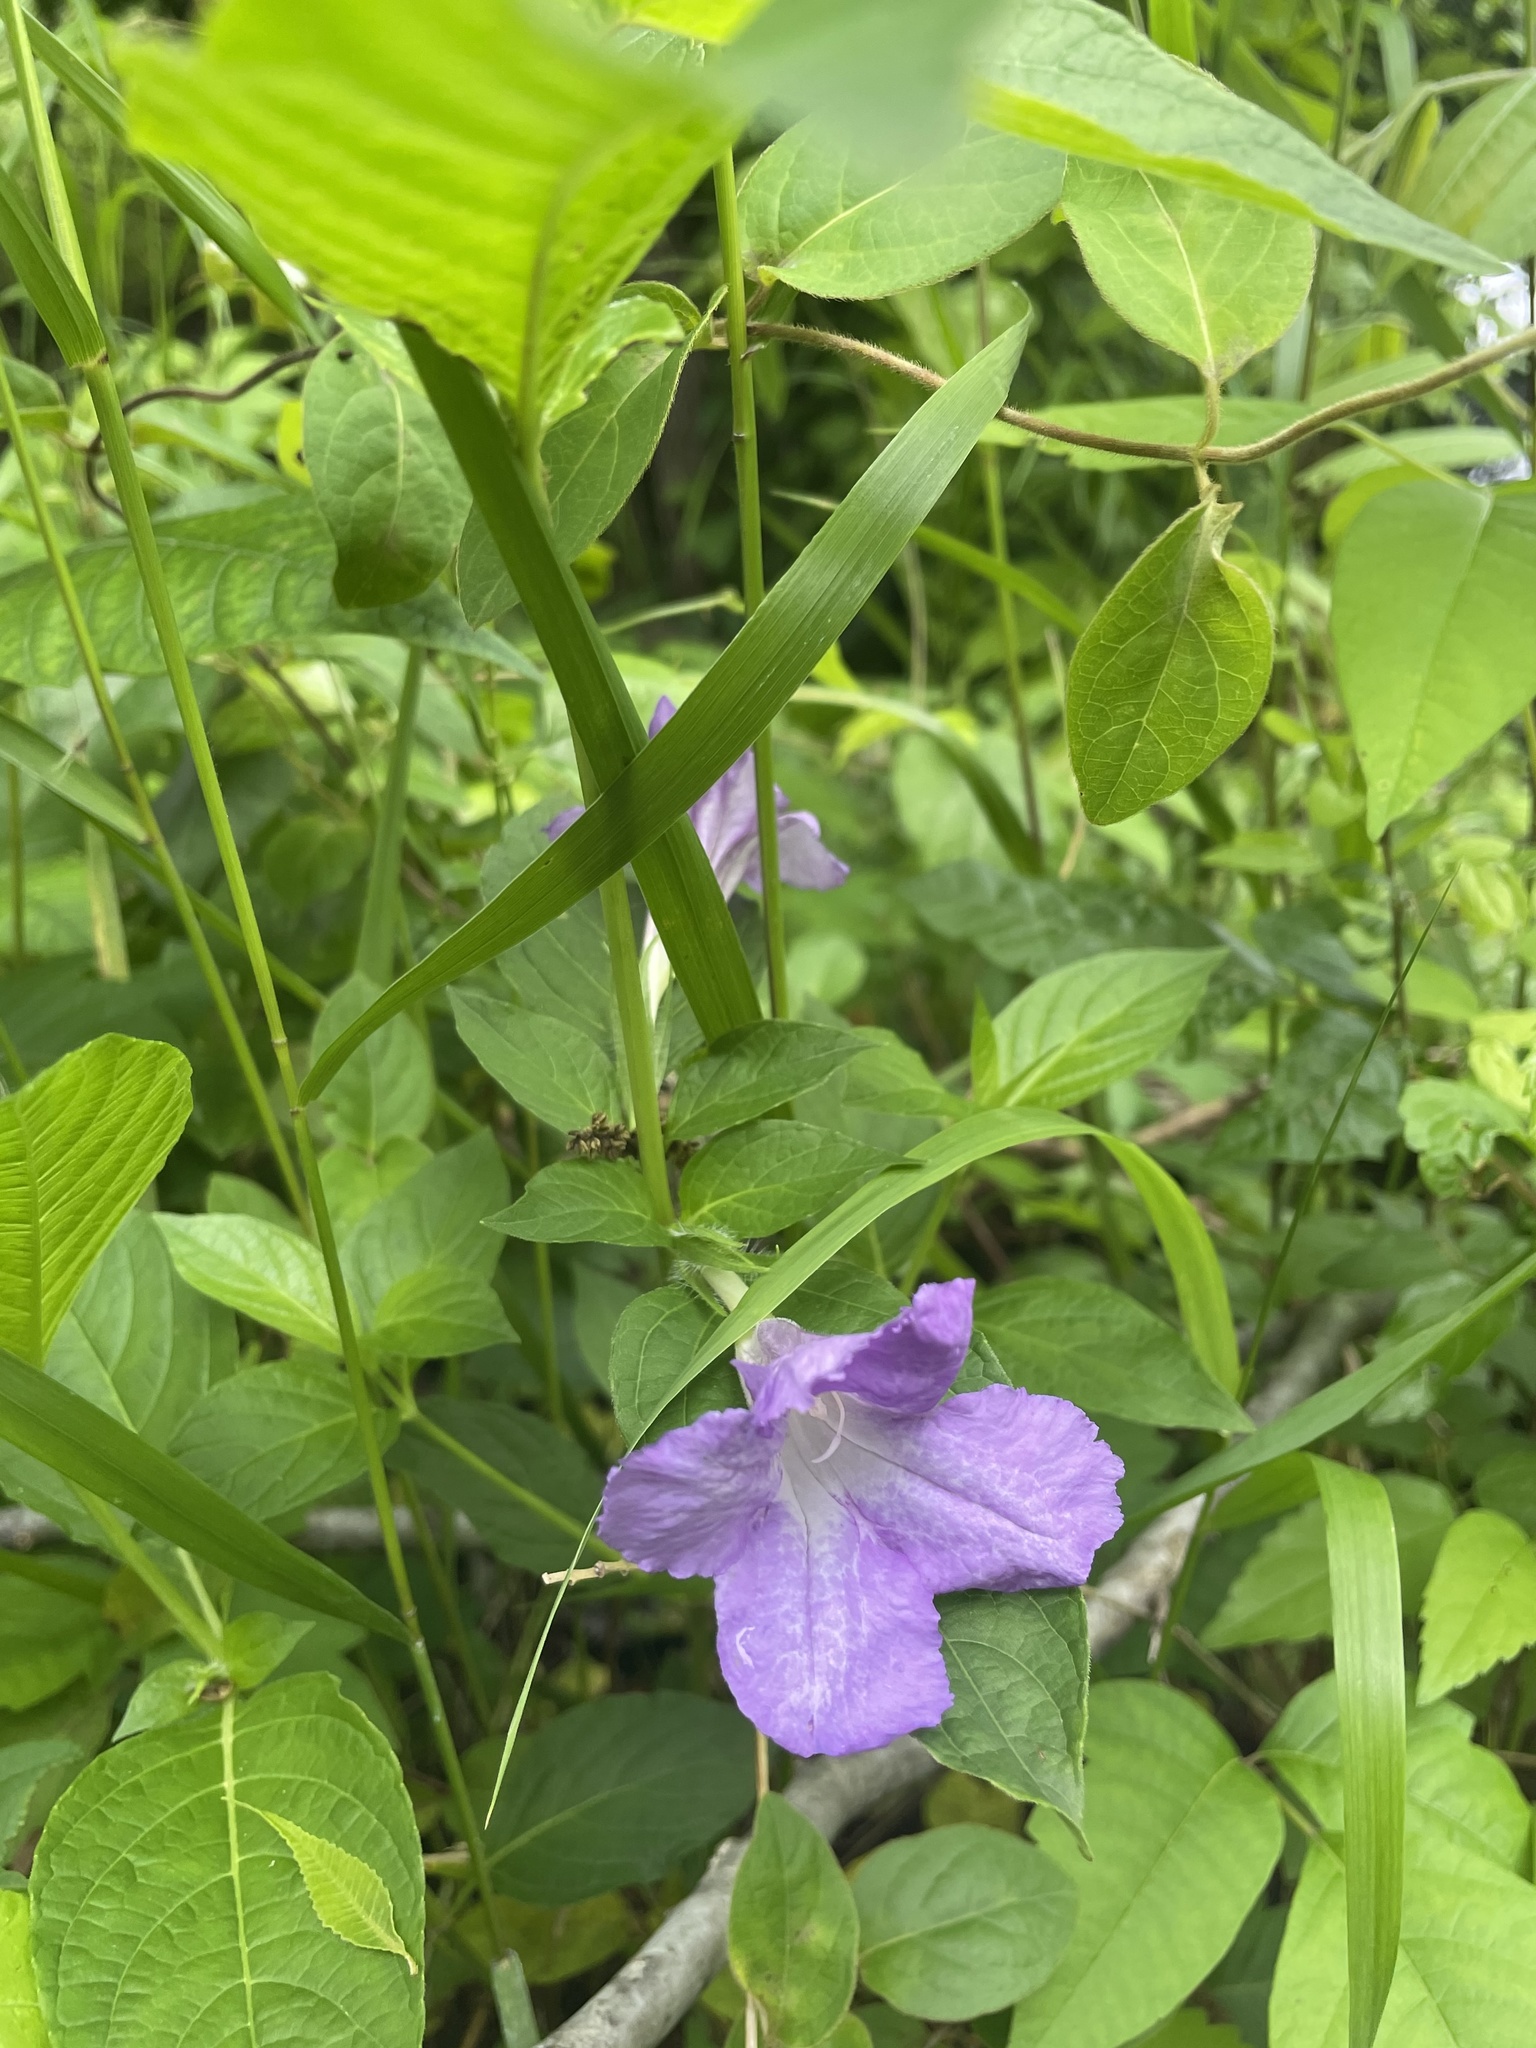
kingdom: Plantae
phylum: Tracheophyta
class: Magnoliopsida
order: Lamiales
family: Acanthaceae
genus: Ruellia
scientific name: Ruellia strepens
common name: Limestone wild petunia
